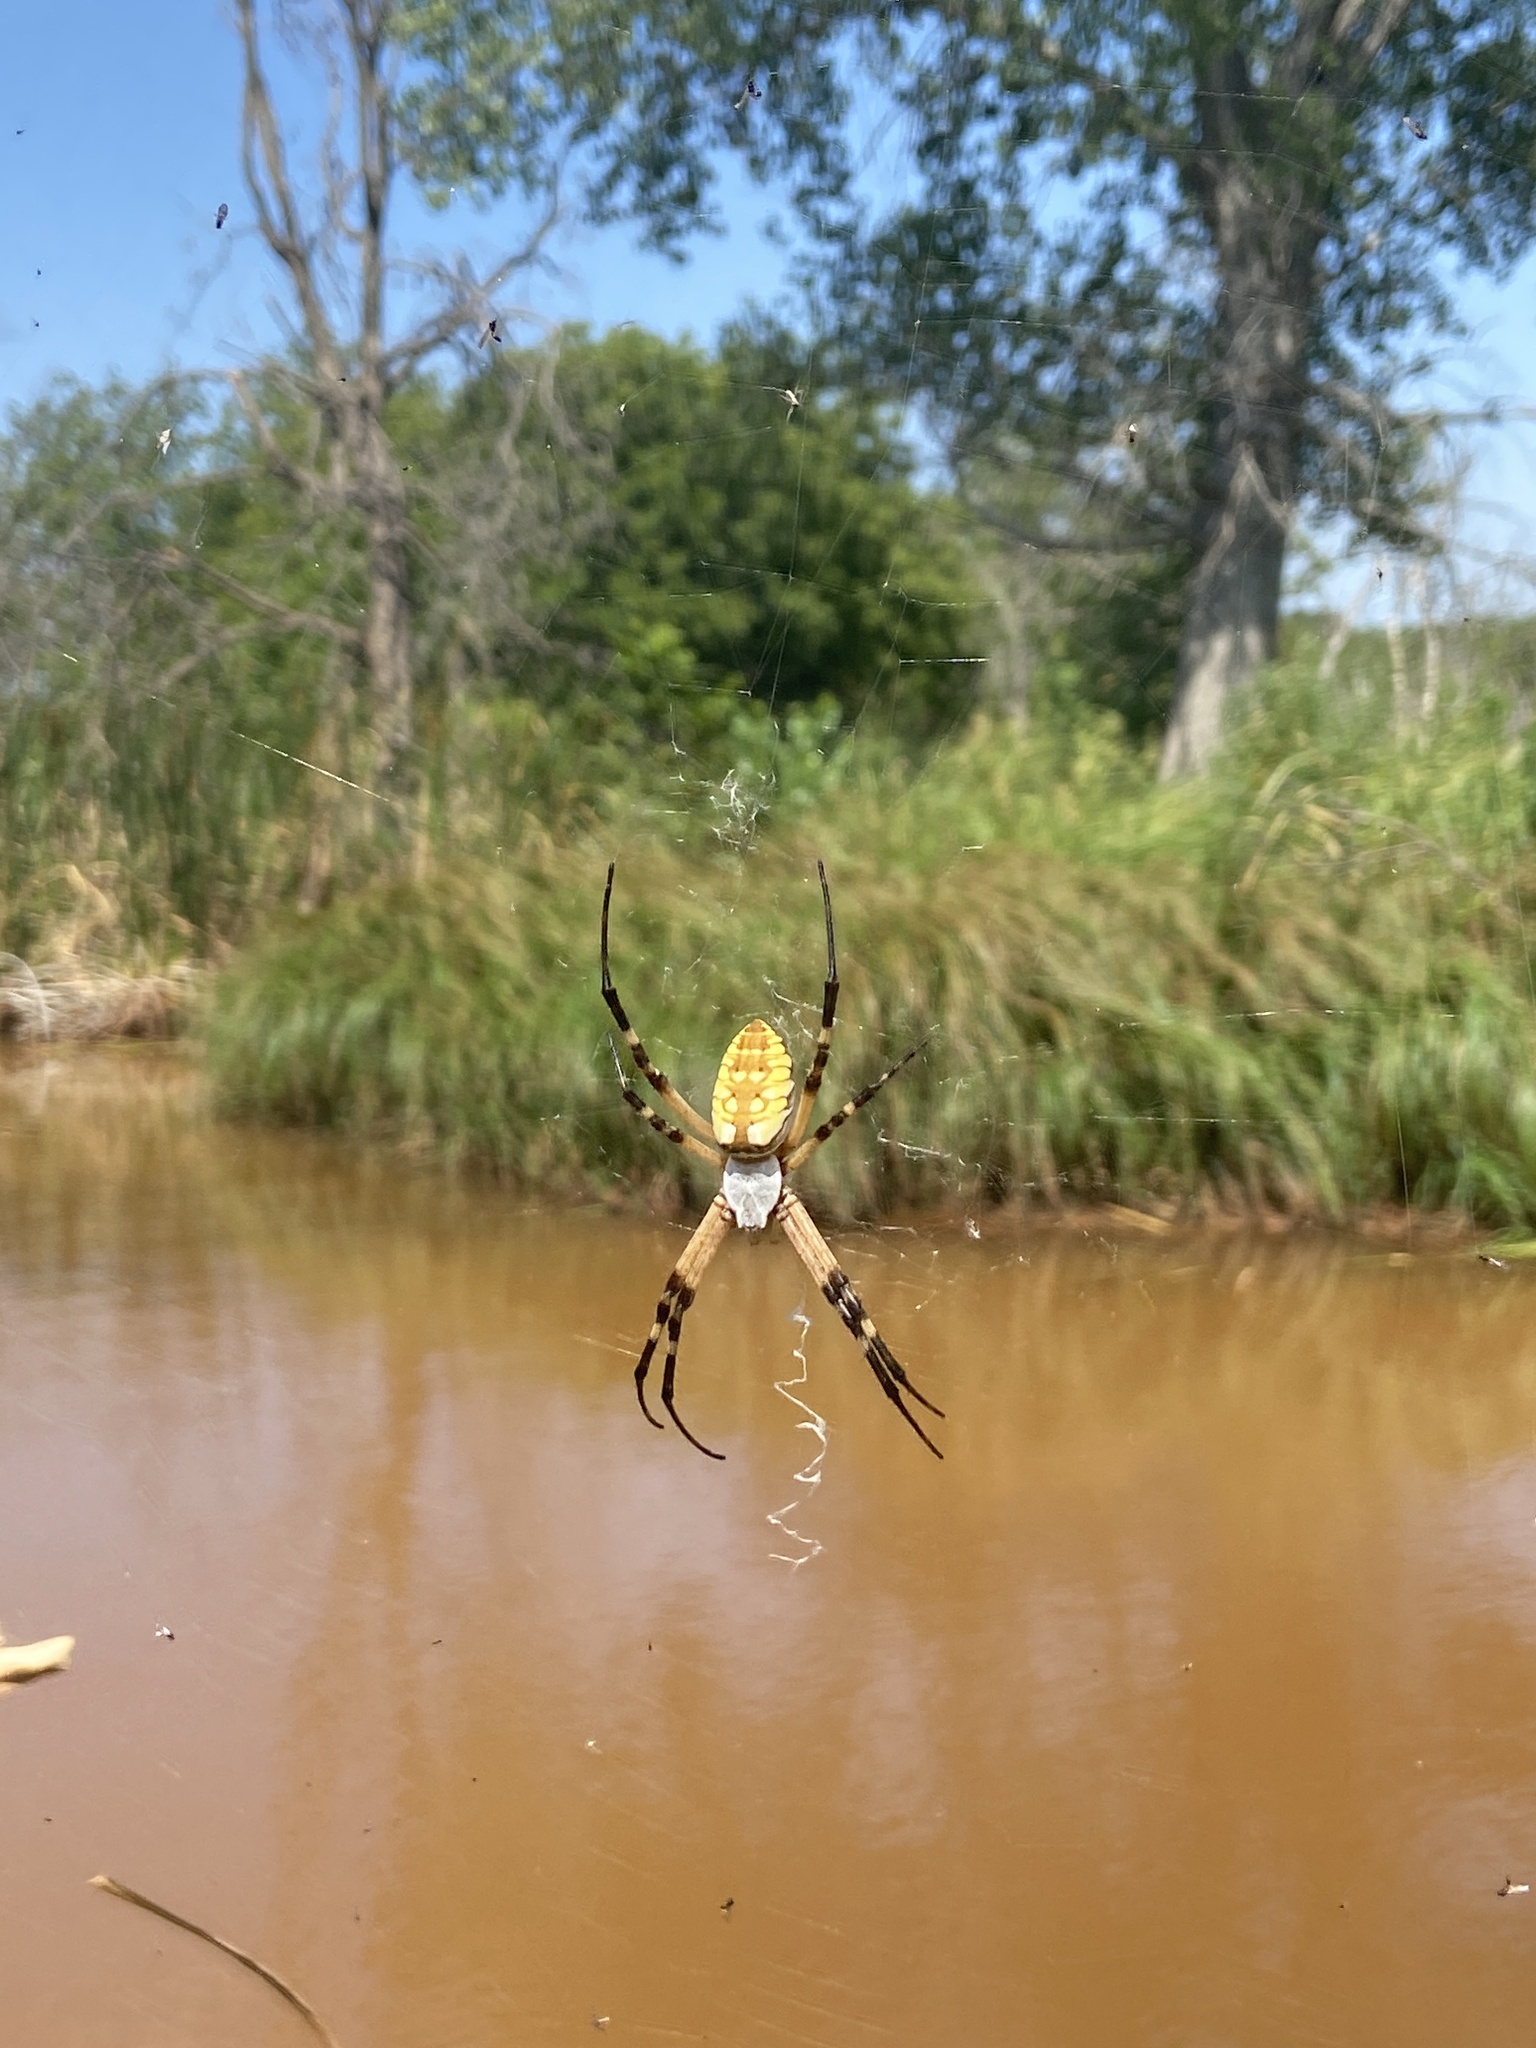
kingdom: Animalia
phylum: Arthropoda
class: Arachnida
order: Araneae
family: Araneidae
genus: Argiope
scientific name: Argiope aurantia
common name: Orb weavers
